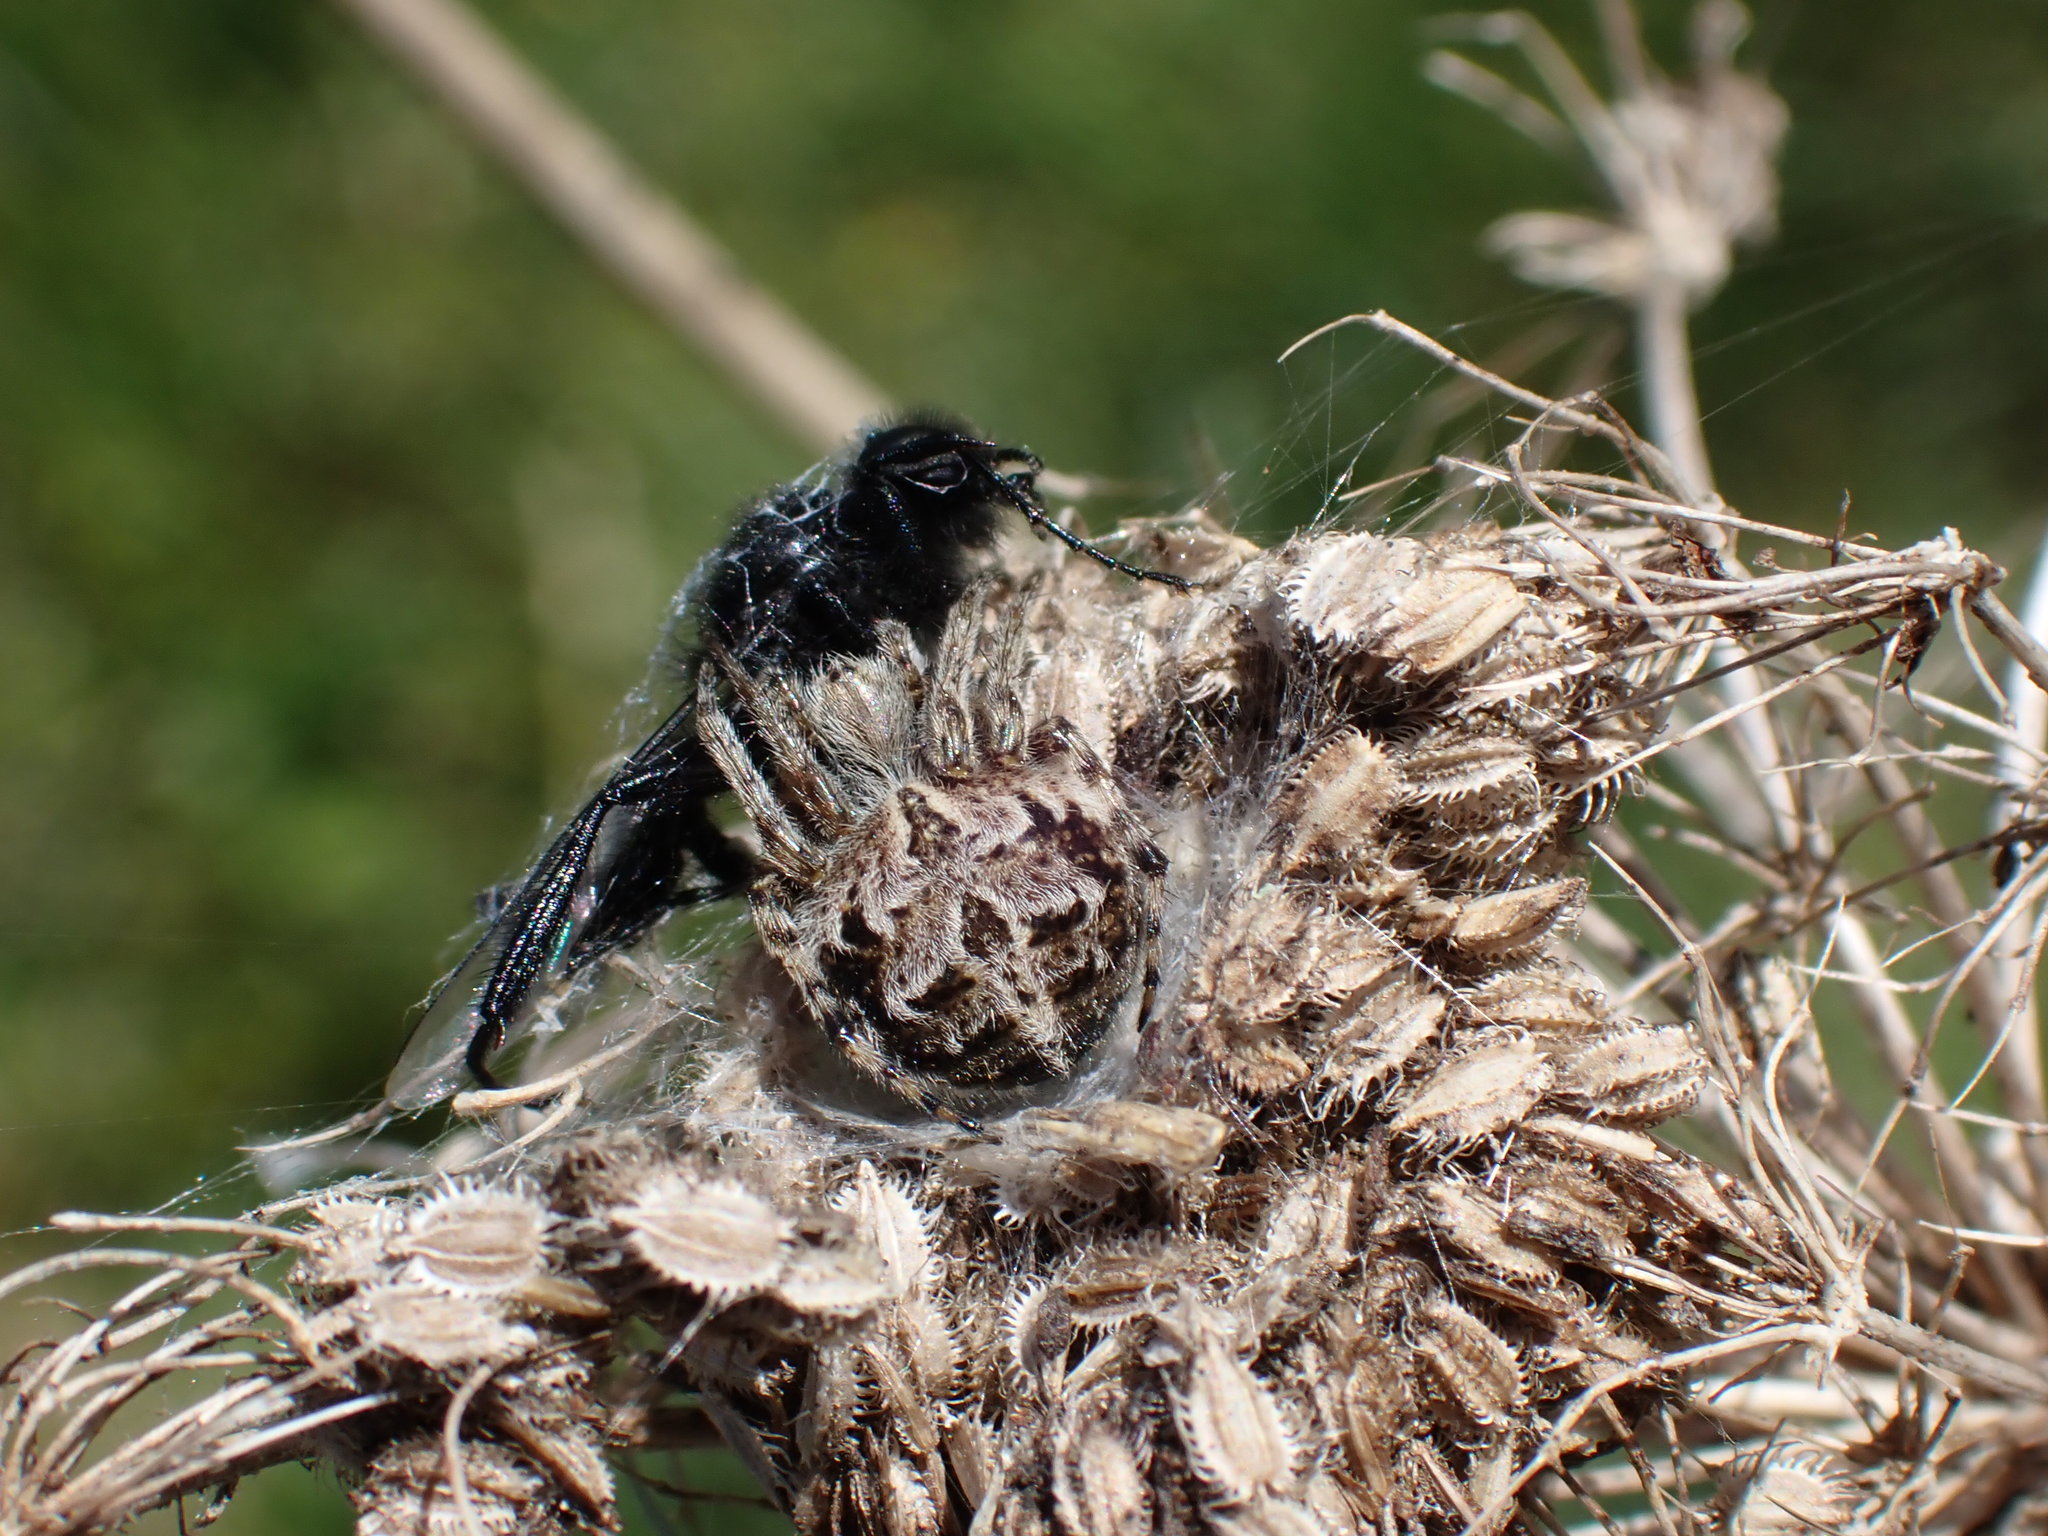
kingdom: Animalia
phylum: Arthropoda
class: Arachnida
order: Araneae
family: Araneidae
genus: Agalenatea
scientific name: Agalenatea redii
